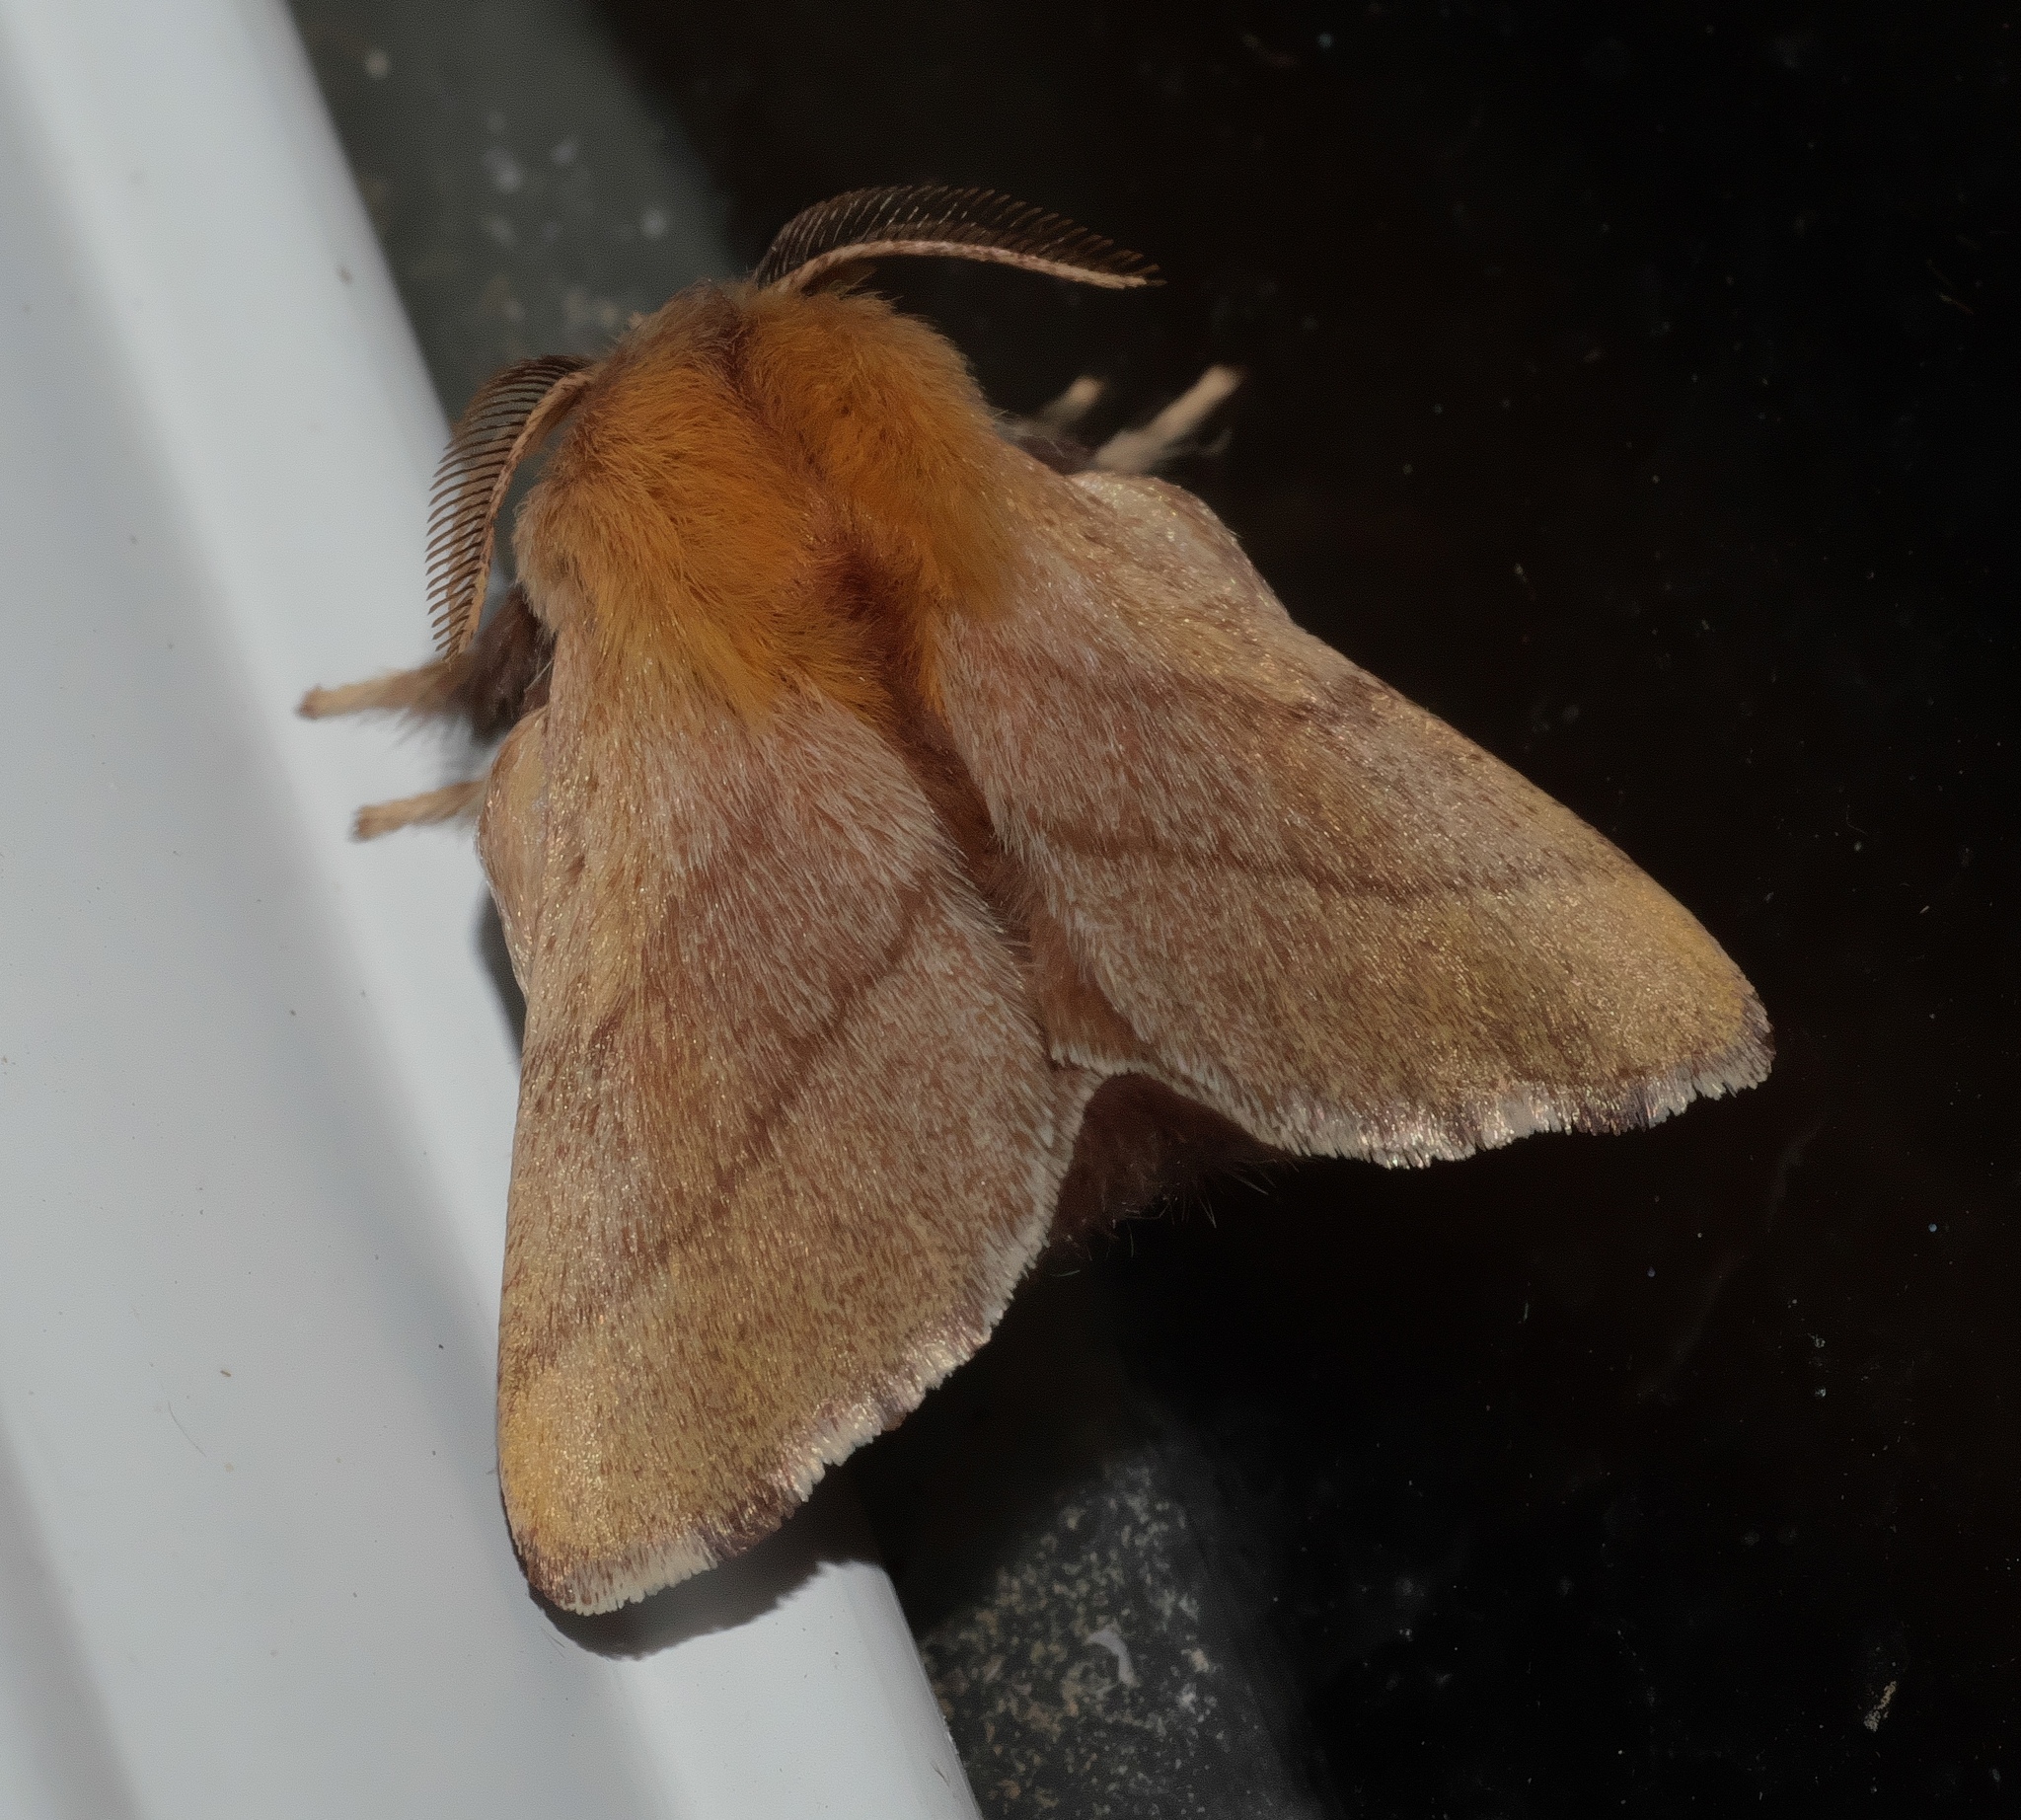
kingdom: Animalia
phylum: Arthropoda
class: Insecta
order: Lepidoptera
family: Lasiocampidae
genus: Malacosoma
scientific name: Malacosoma disstria
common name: Forest tent caterpillar
